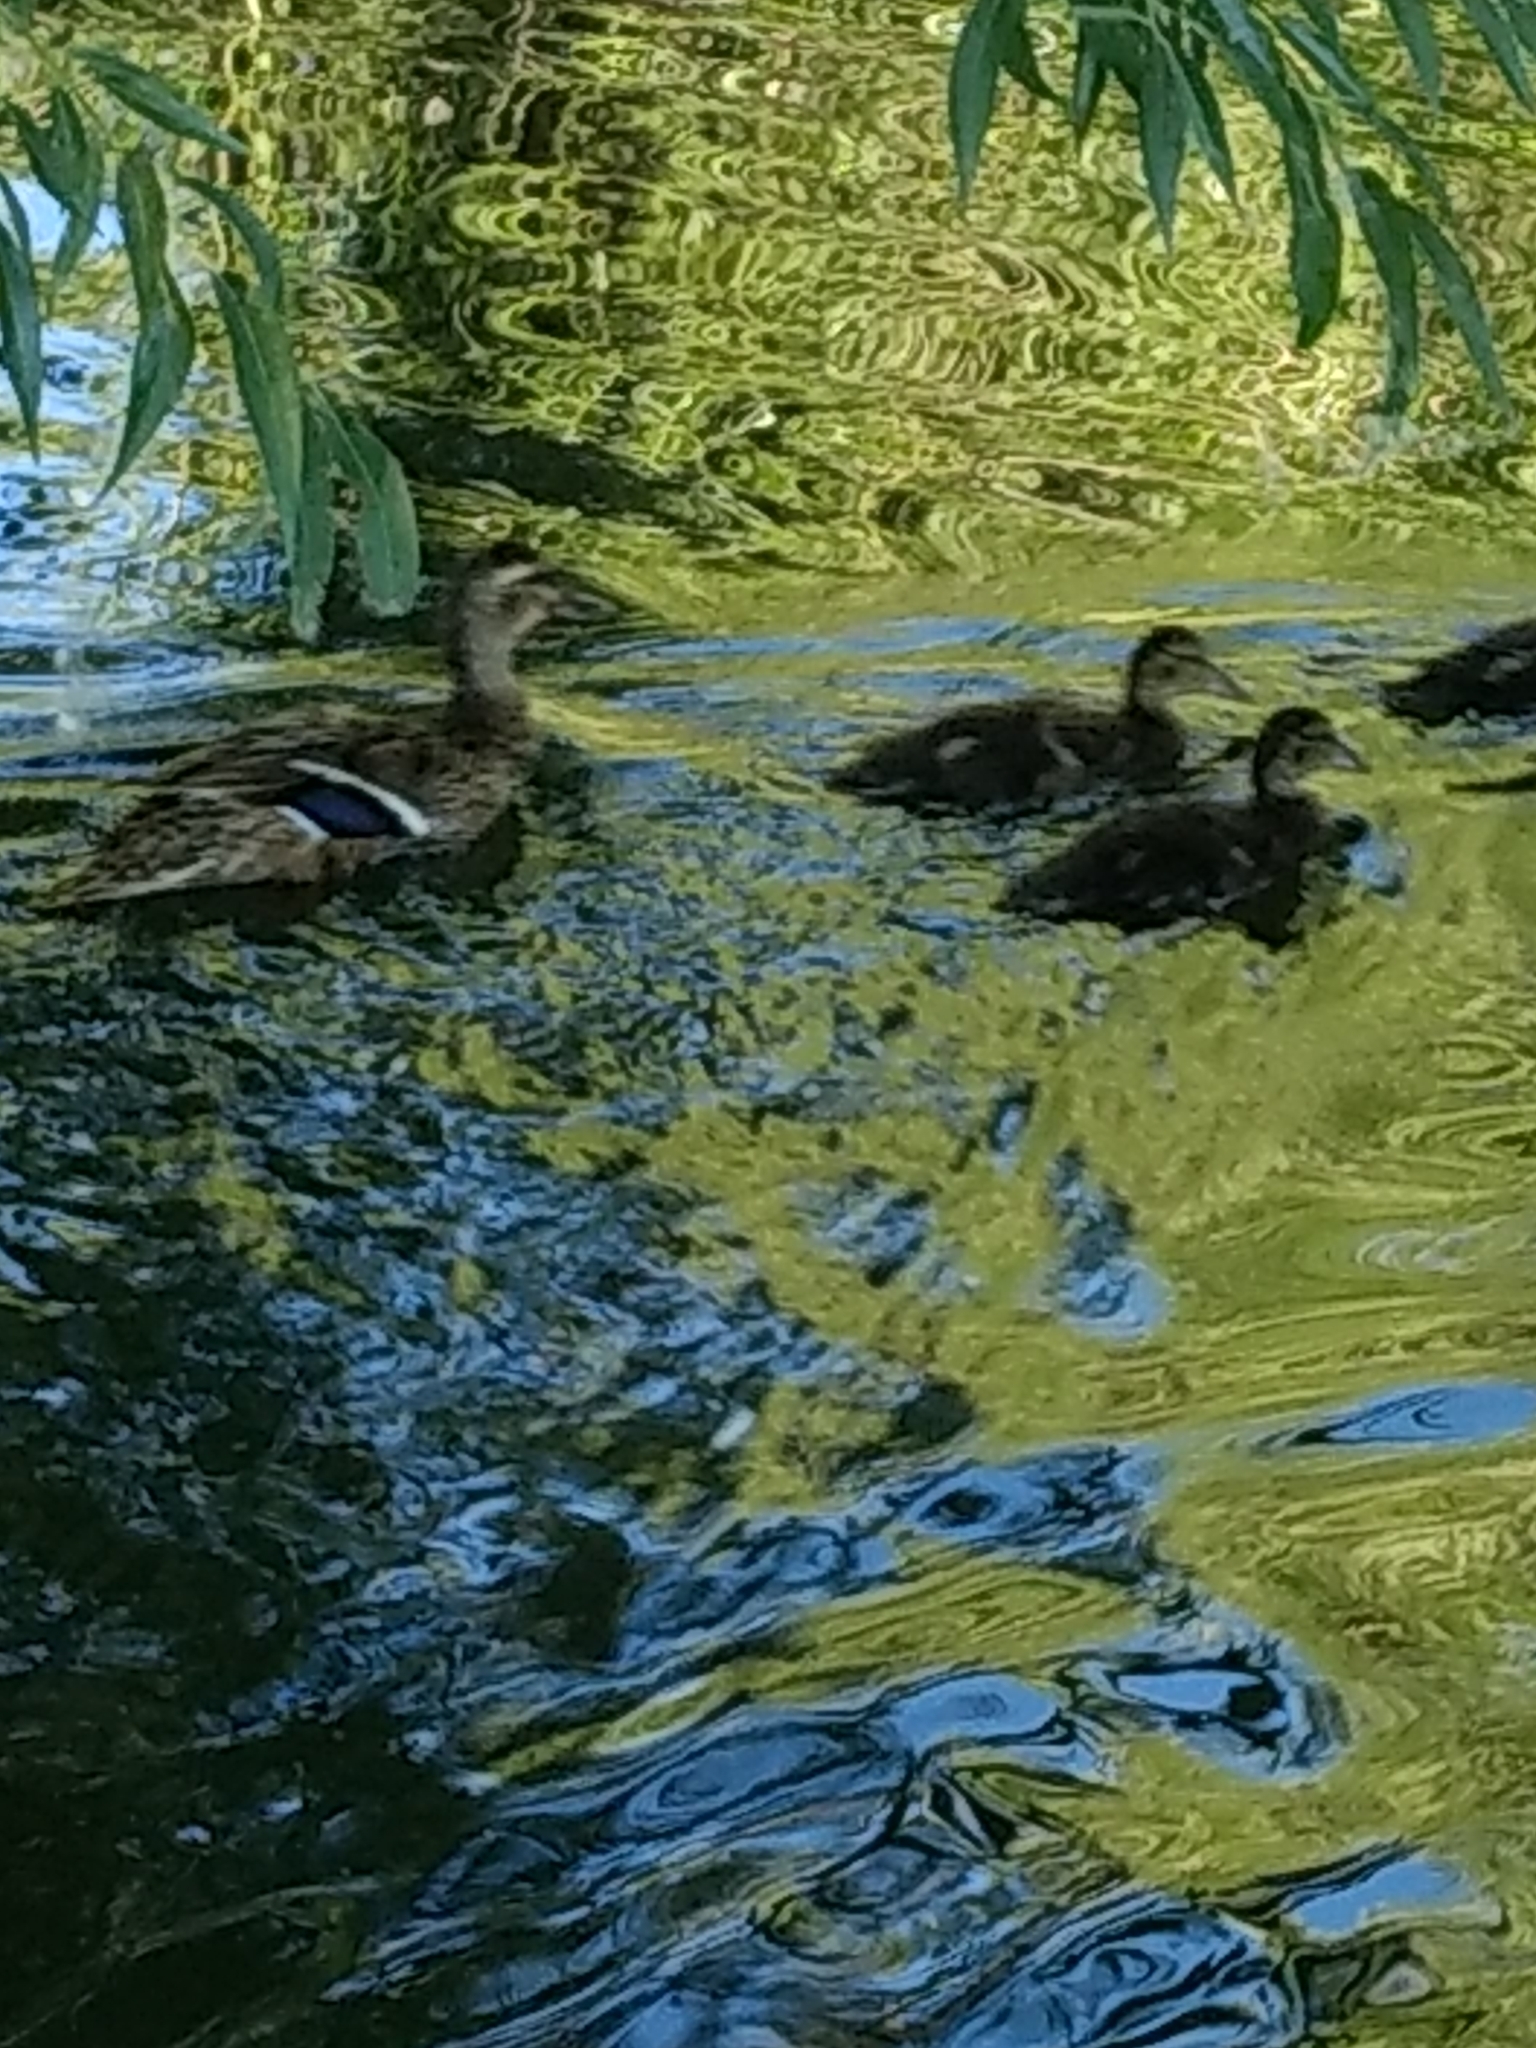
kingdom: Animalia
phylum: Chordata
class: Aves
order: Anseriformes
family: Anatidae
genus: Anas
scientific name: Anas platyrhynchos
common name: Mallard
